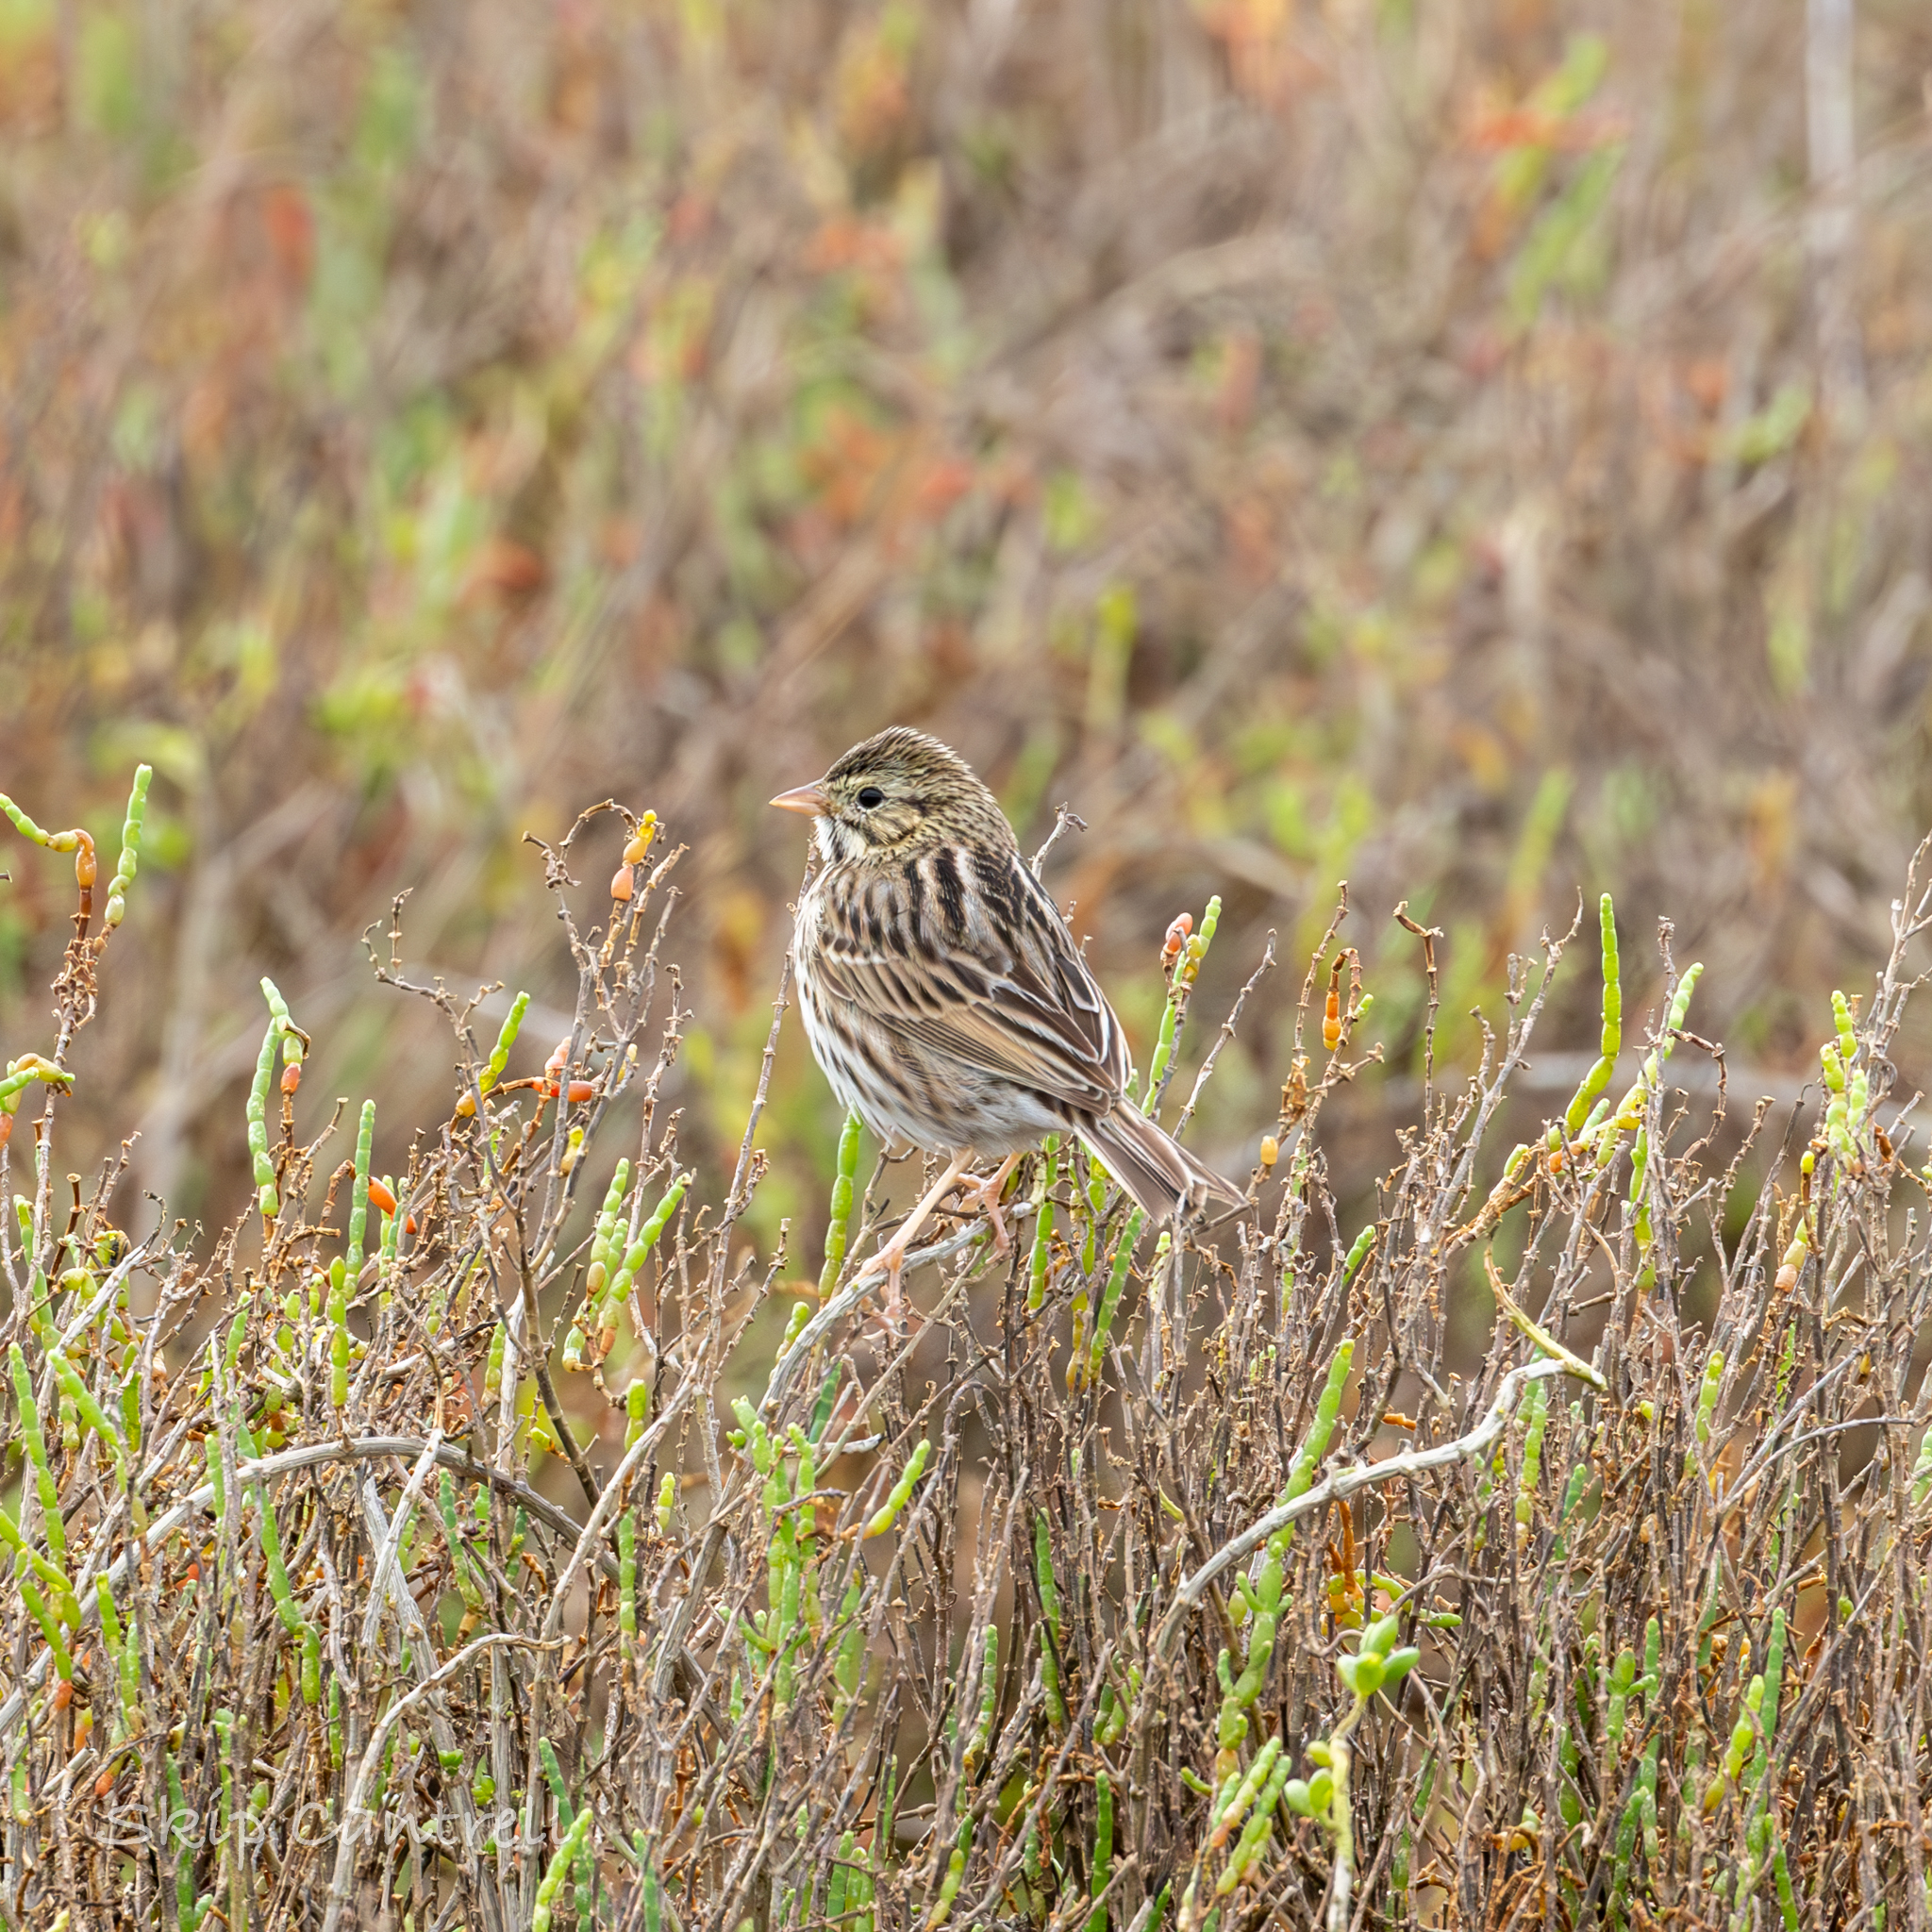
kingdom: Animalia
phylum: Chordata
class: Aves
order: Passeriformes
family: Passerellidae
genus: Passerculus
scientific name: Passerculus sandwichensis
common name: Savannah sparrow
